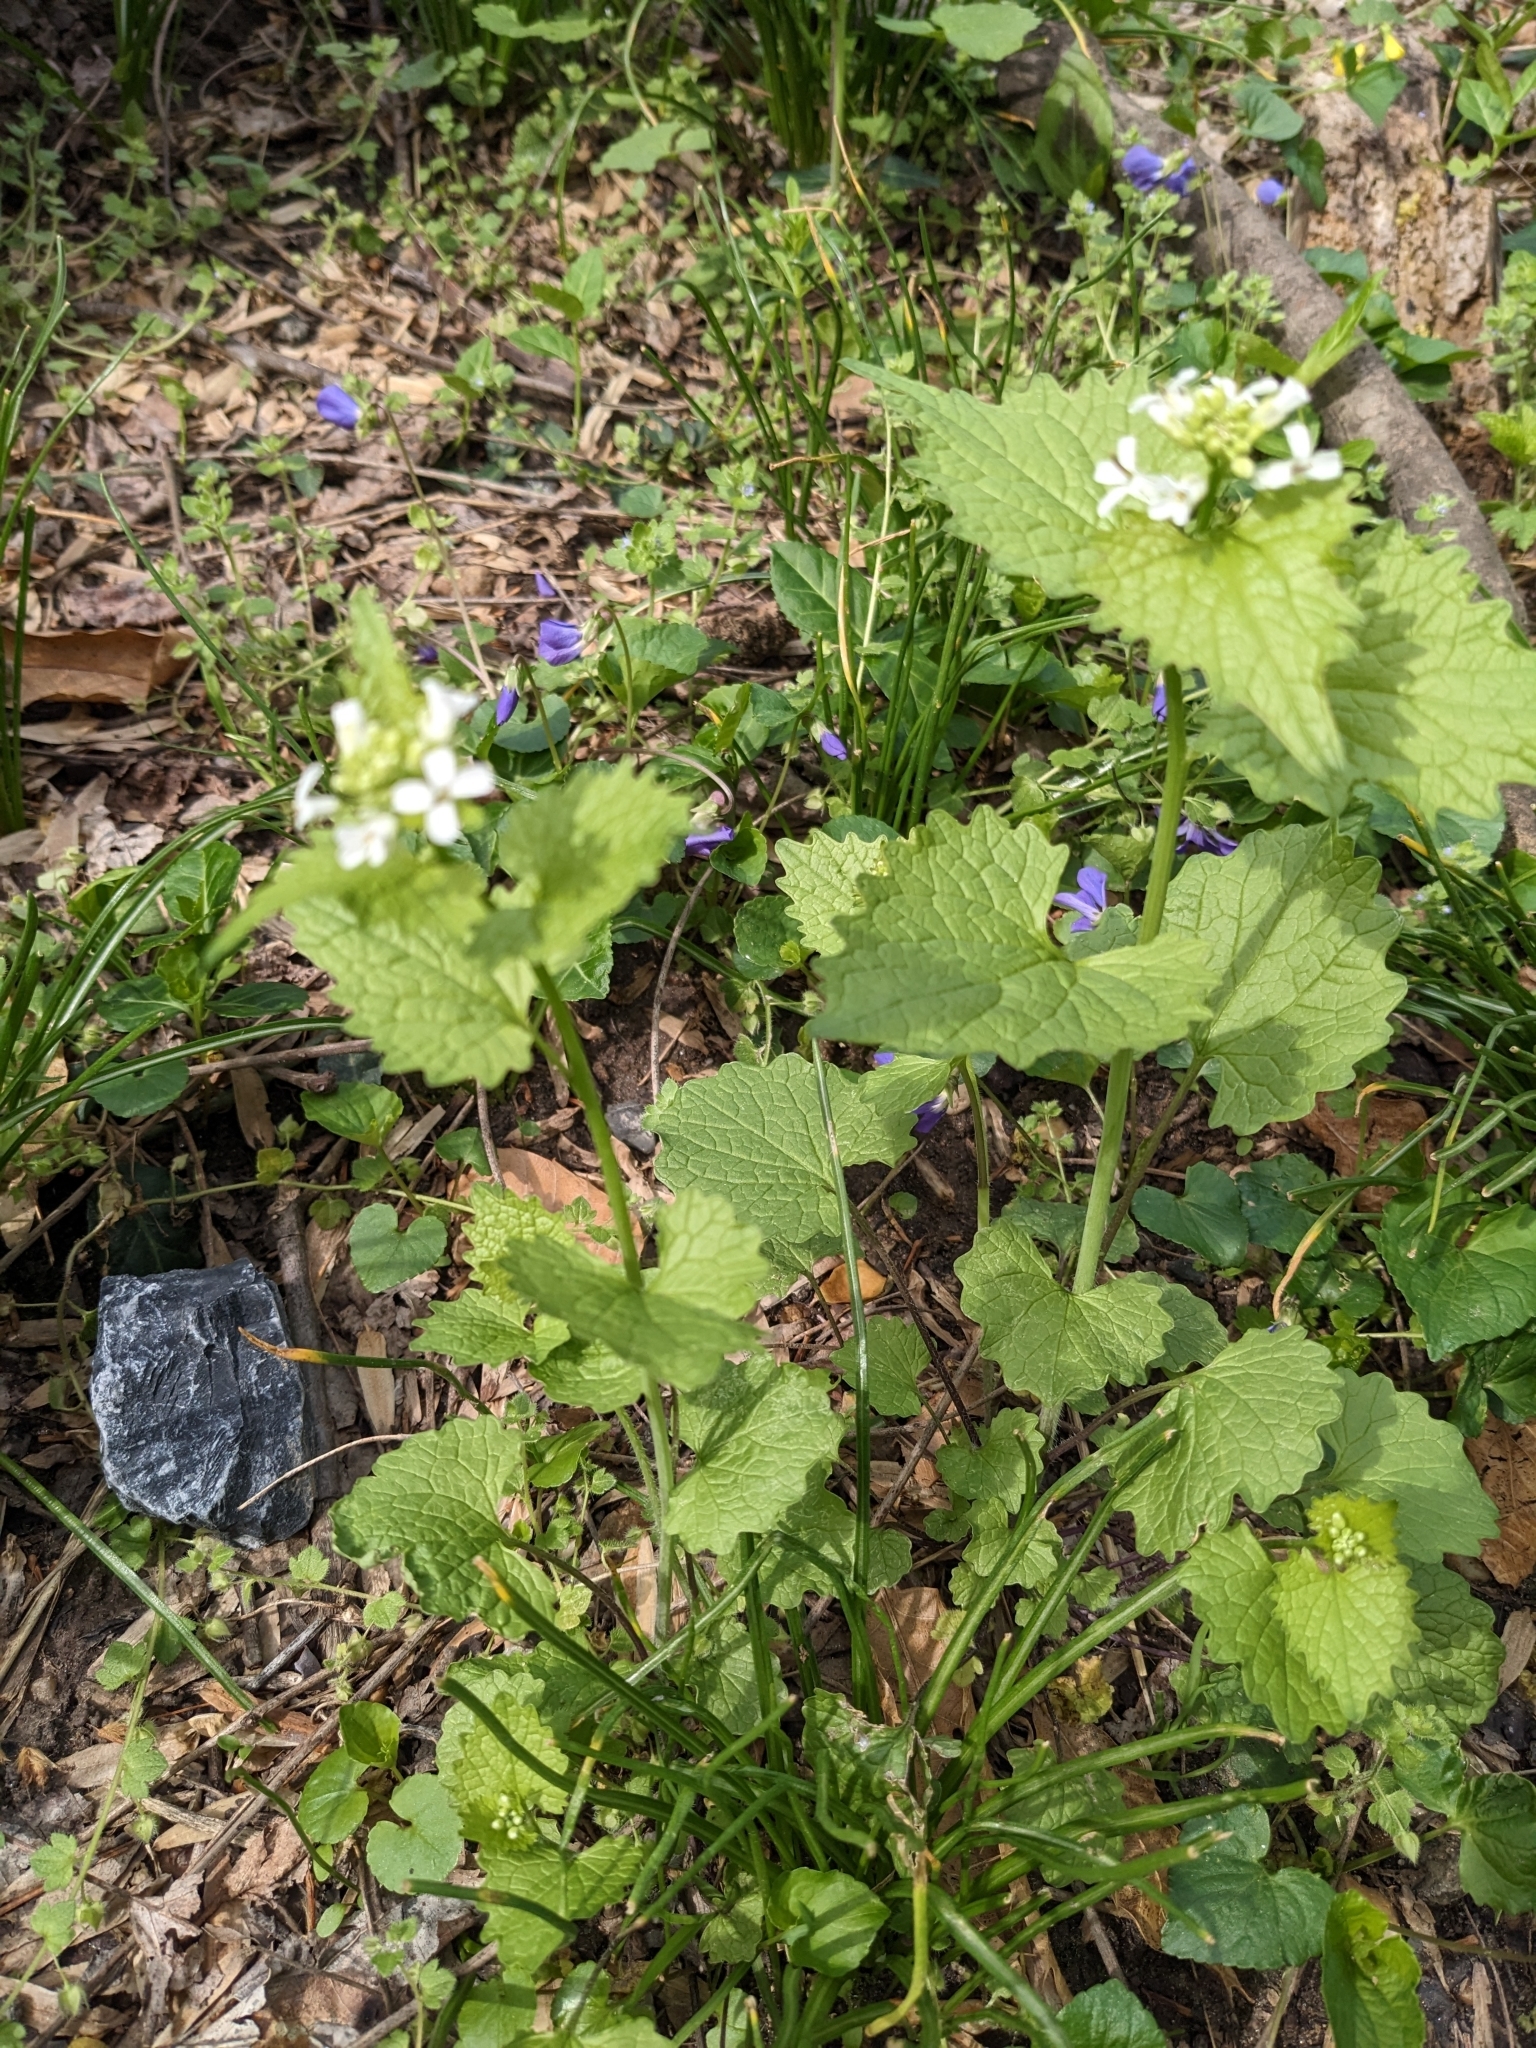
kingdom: Plantae
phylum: Tracheophyta
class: Magnoliopsida
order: Brassicales
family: Brassicaceae
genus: Alliaria
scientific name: Alliaria petiolata
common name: Garlic mustard
